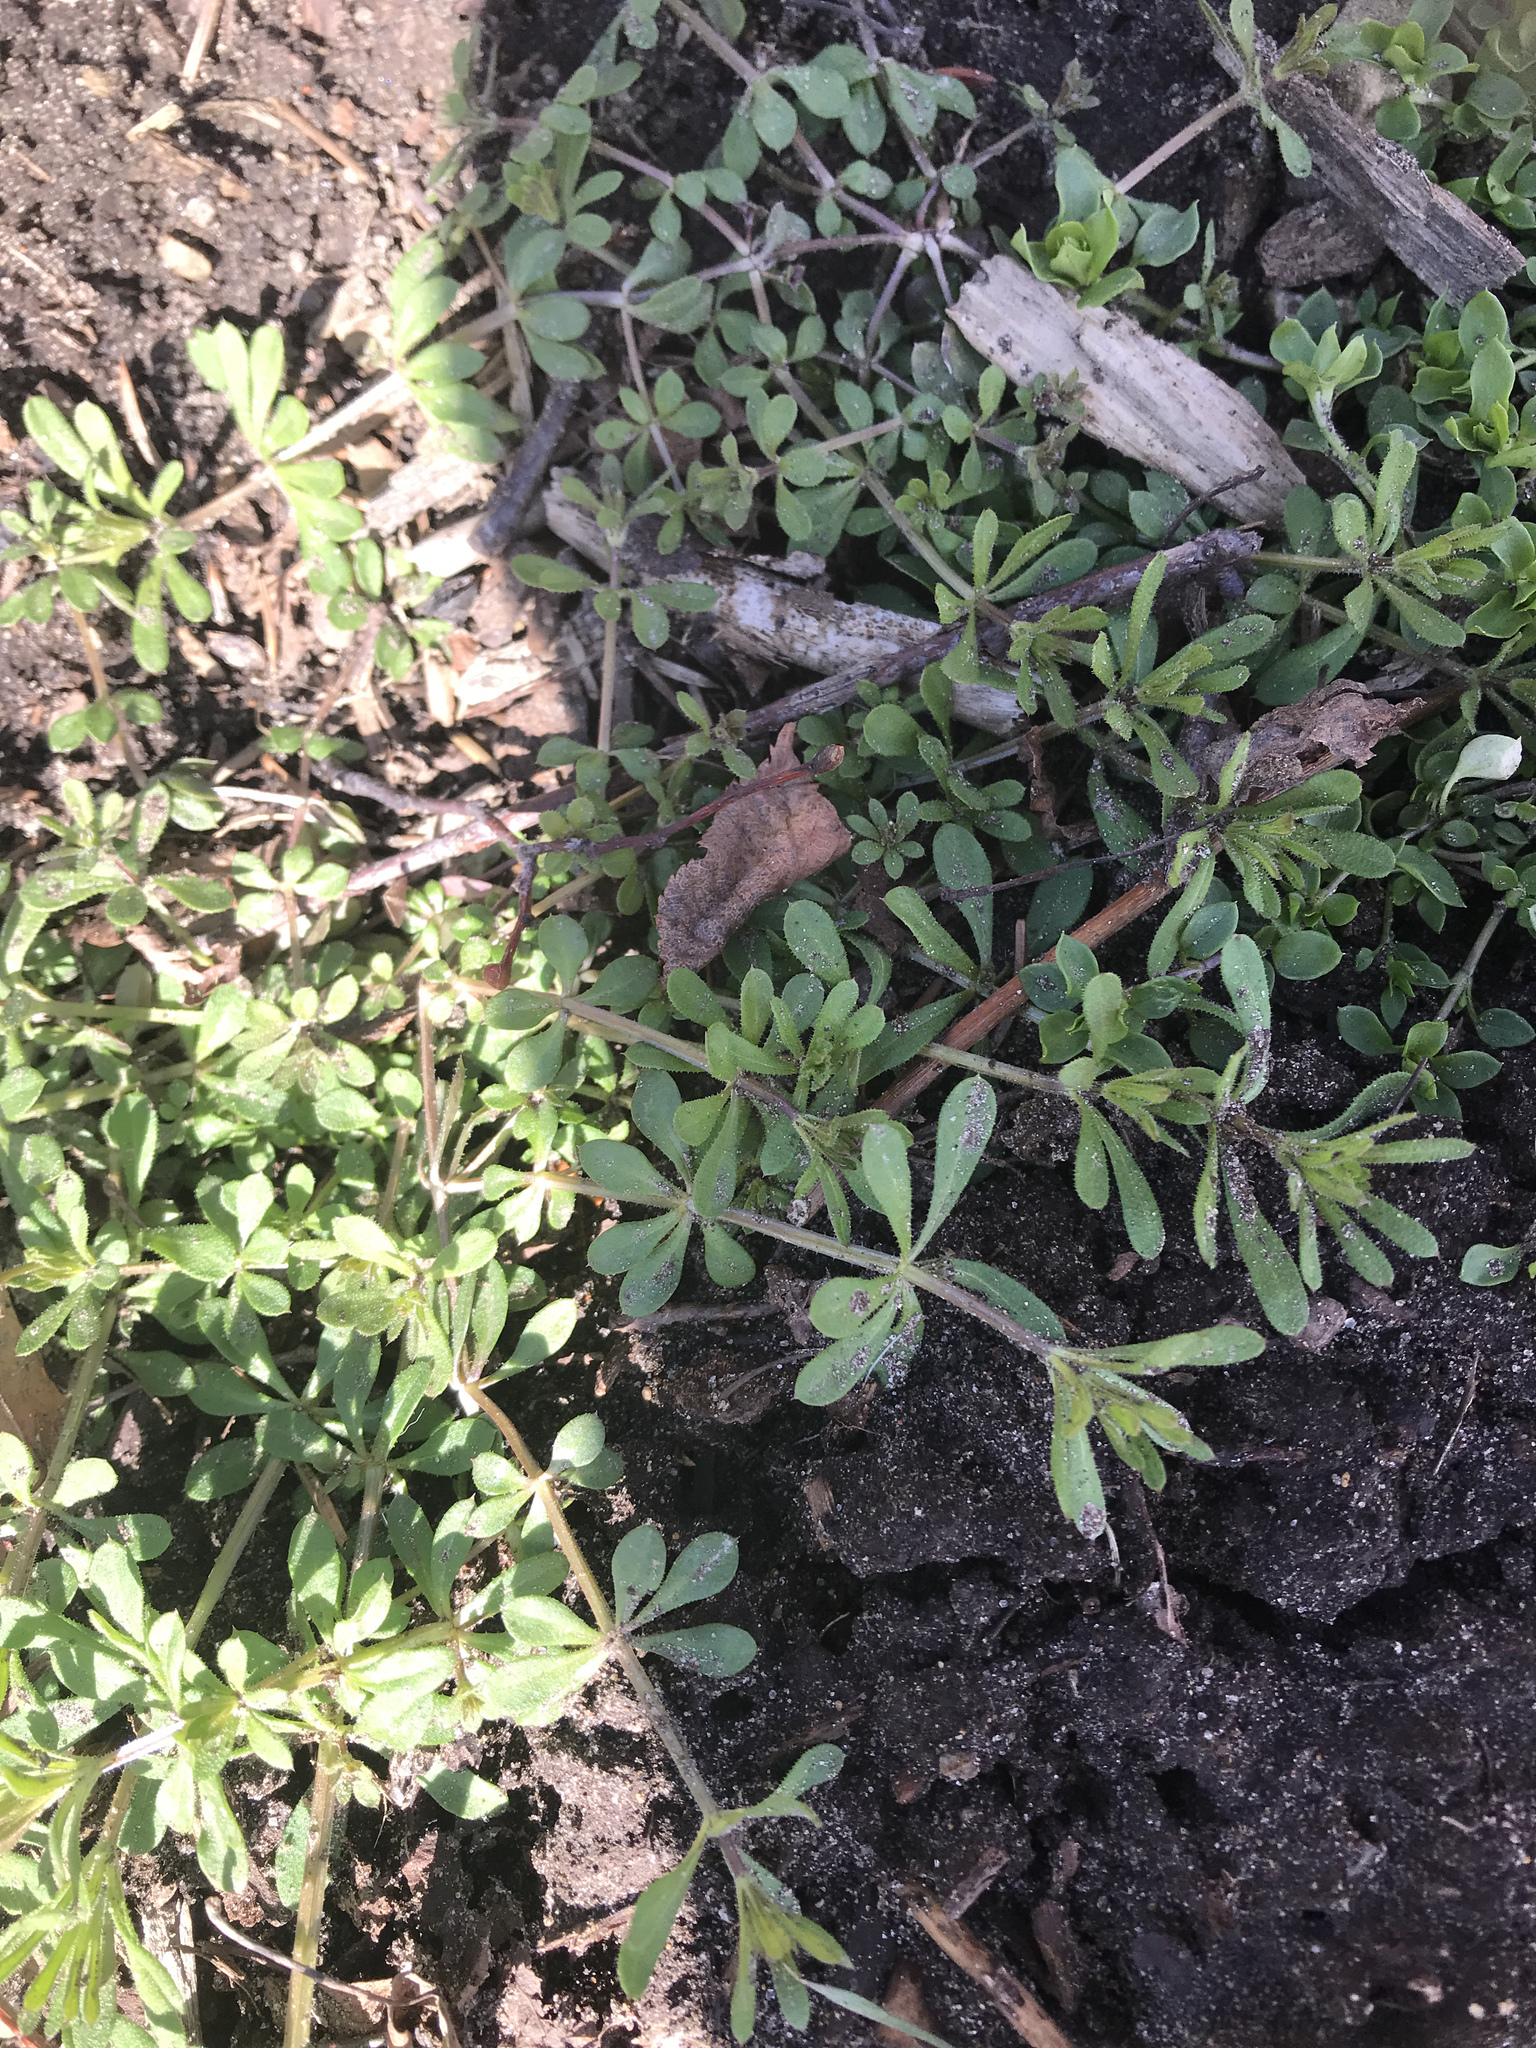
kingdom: Plantae
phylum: Tracheophyta
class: Magnoliopsida
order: Gentianales
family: Rubiaceae
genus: Galium
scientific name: Galium aparine
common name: Cleavers
